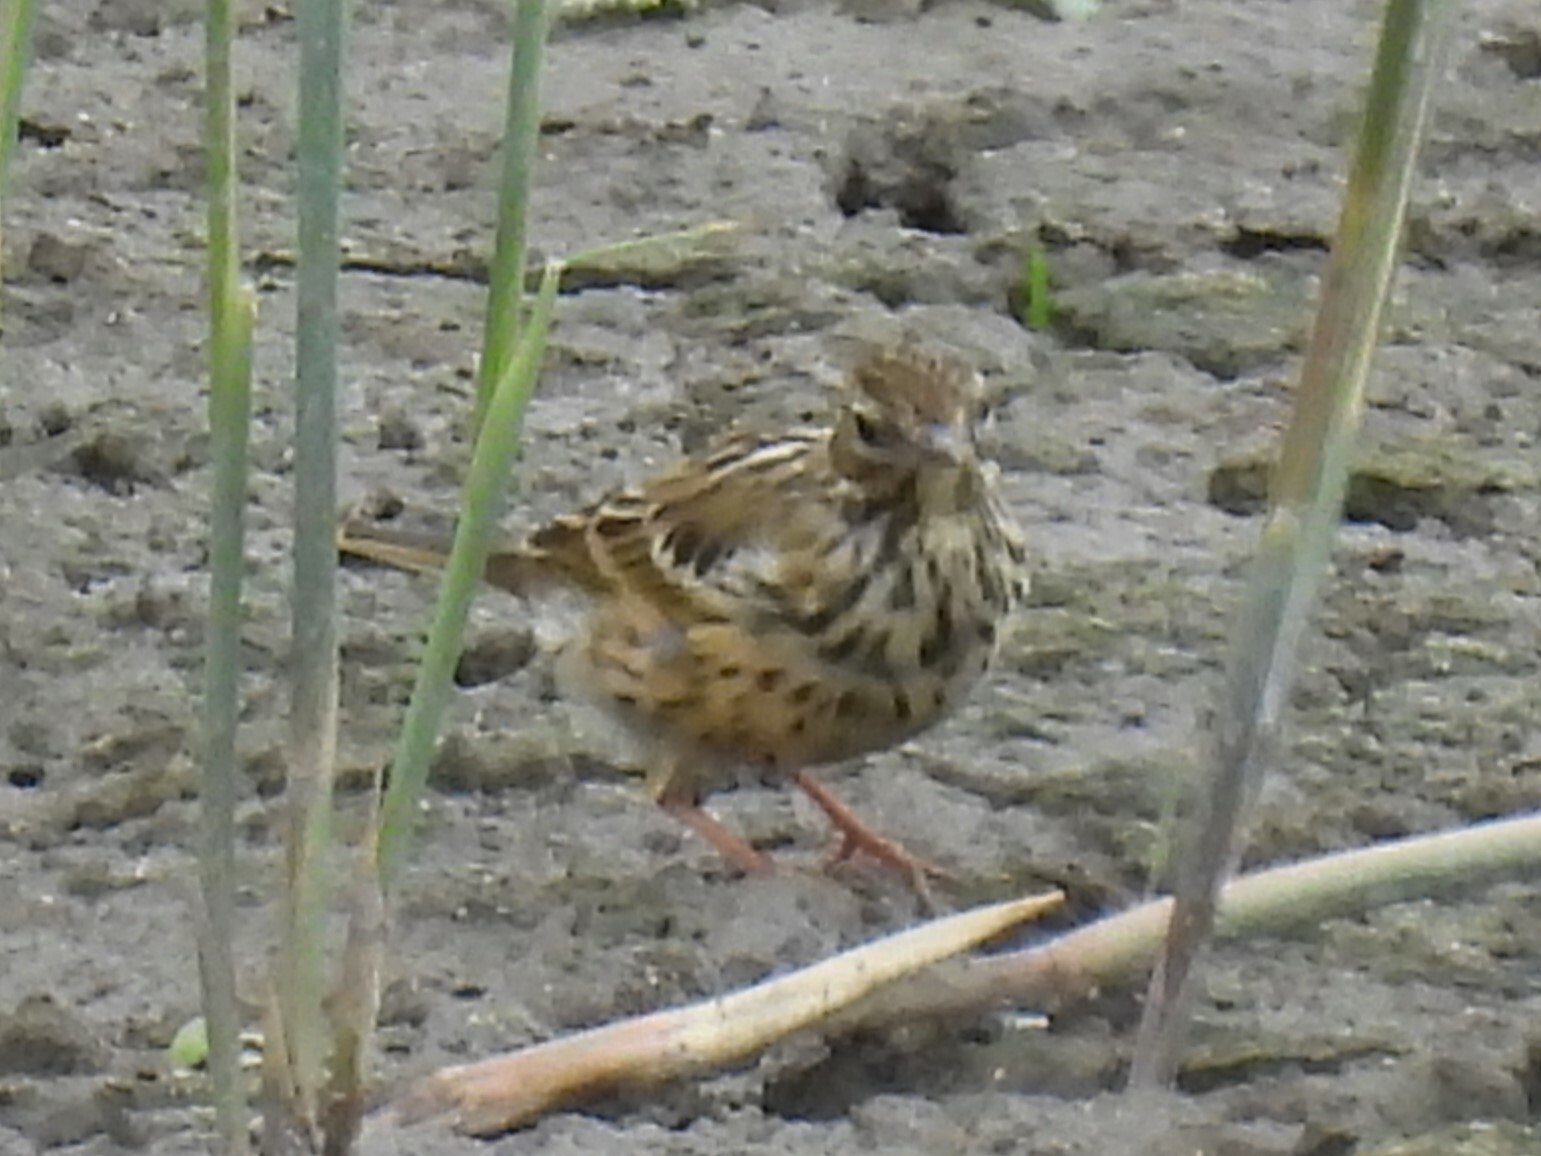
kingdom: Animalia
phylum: Chordata
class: Aves
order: Passeriformes
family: Motacillidae
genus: Anthus
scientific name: Anthus pratensis
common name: Meadow pipit
